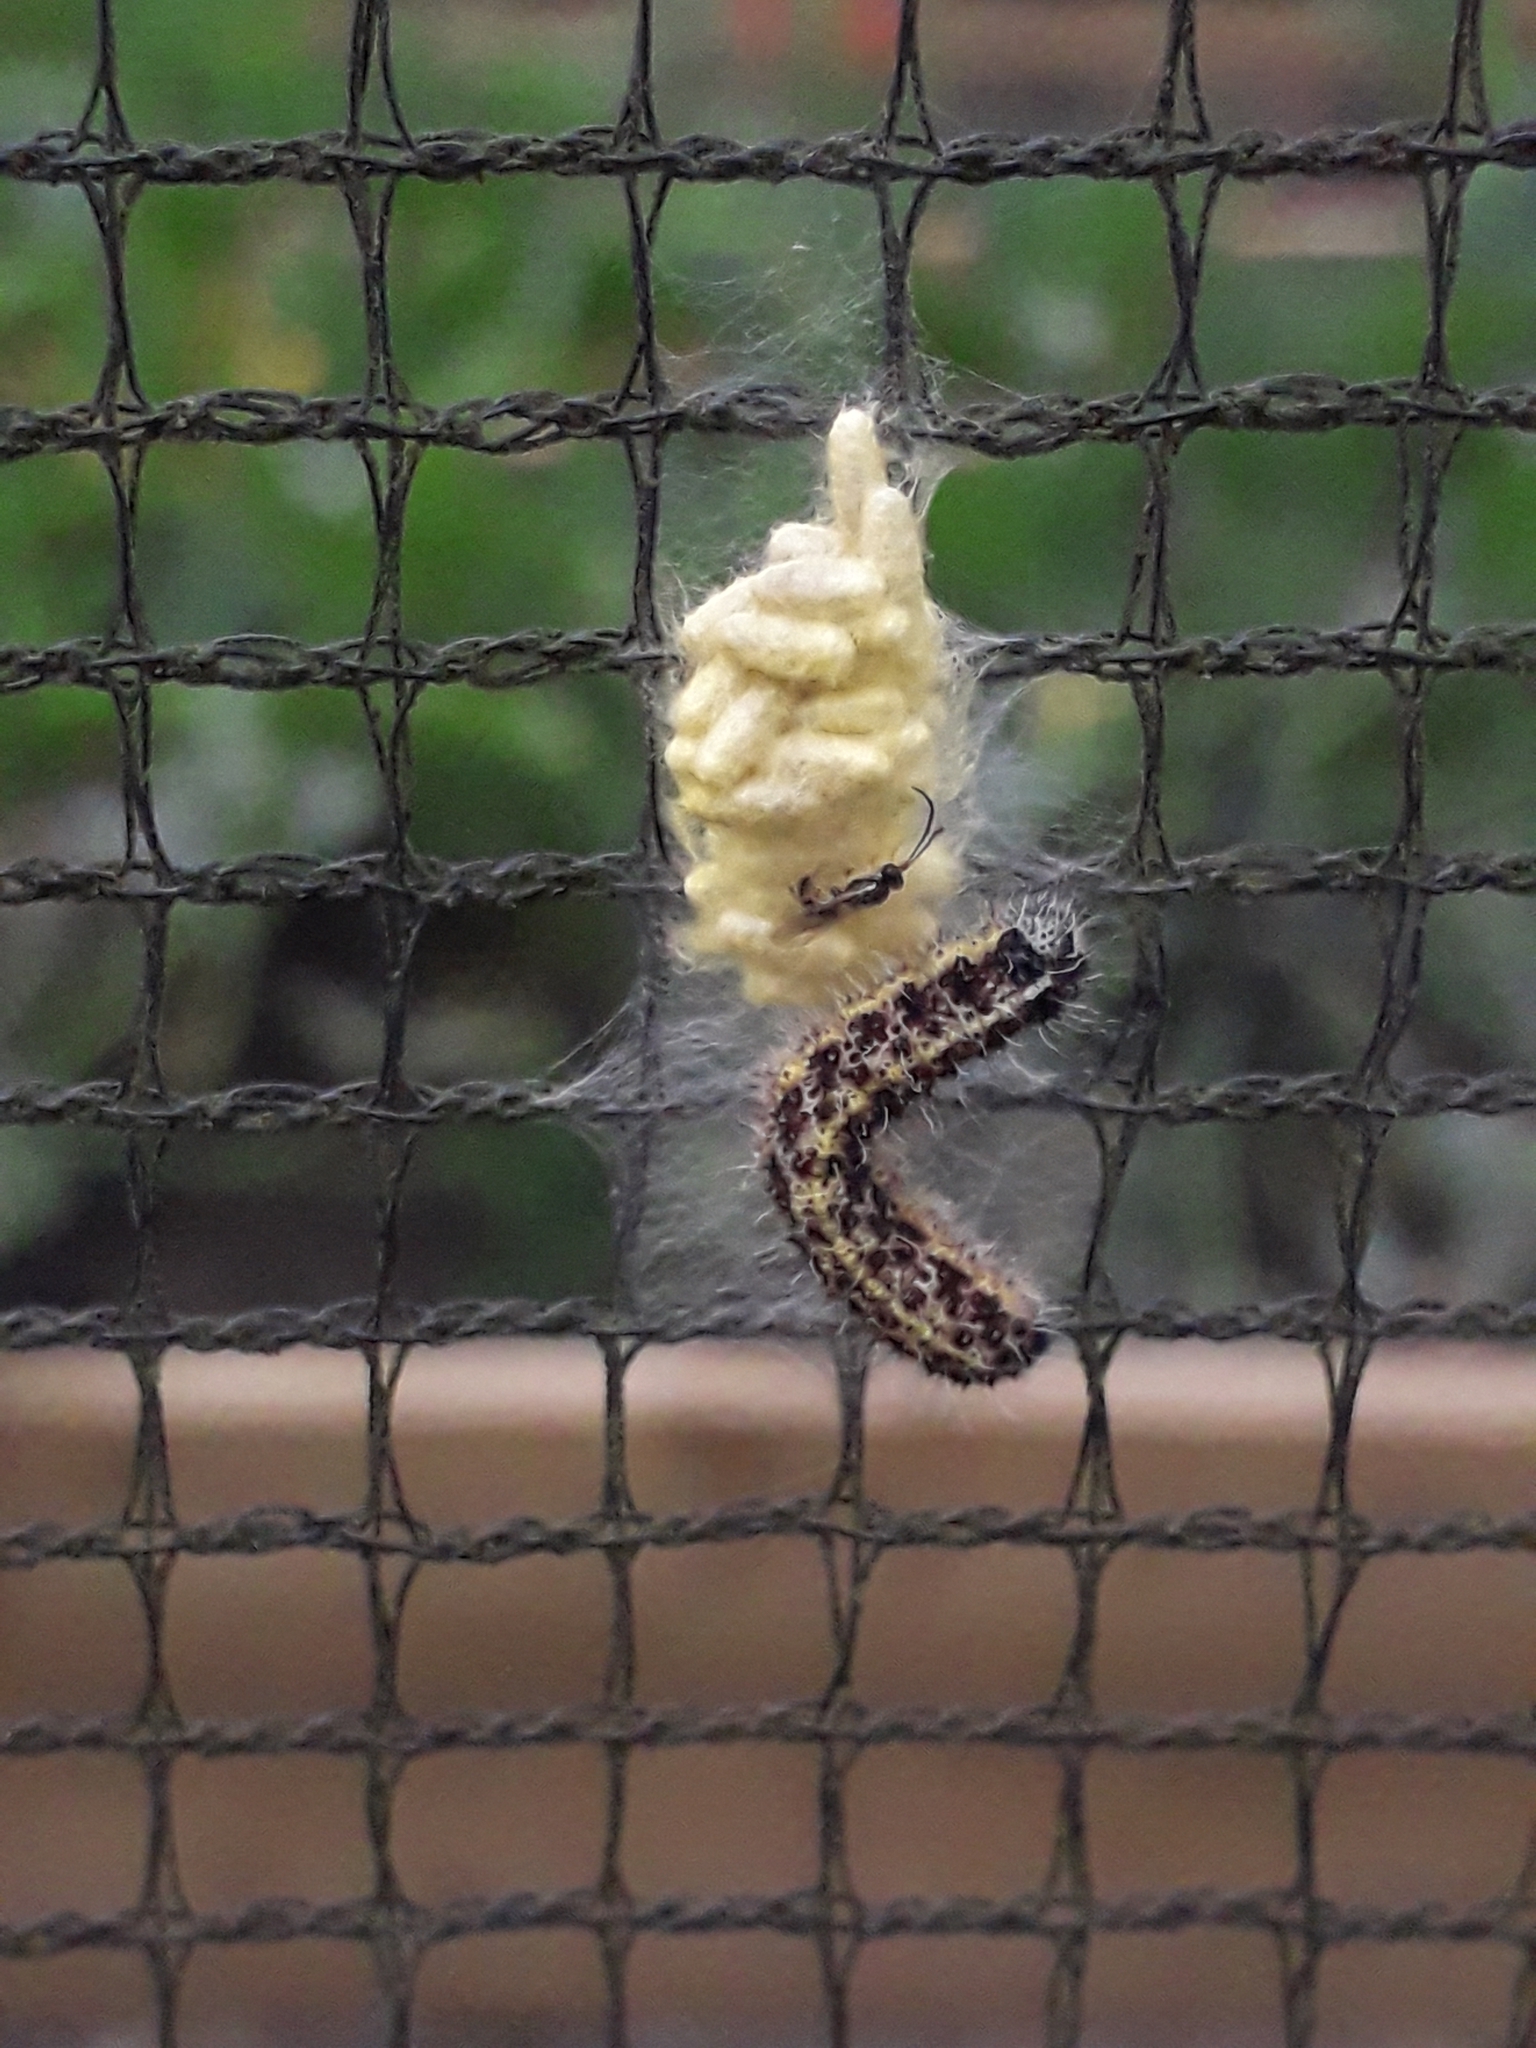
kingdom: Animalia
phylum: Arthropoda
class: Insecta
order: Lepidoptera
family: Pieridae
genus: Pieris
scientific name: Pieris brassicae
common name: Large white
